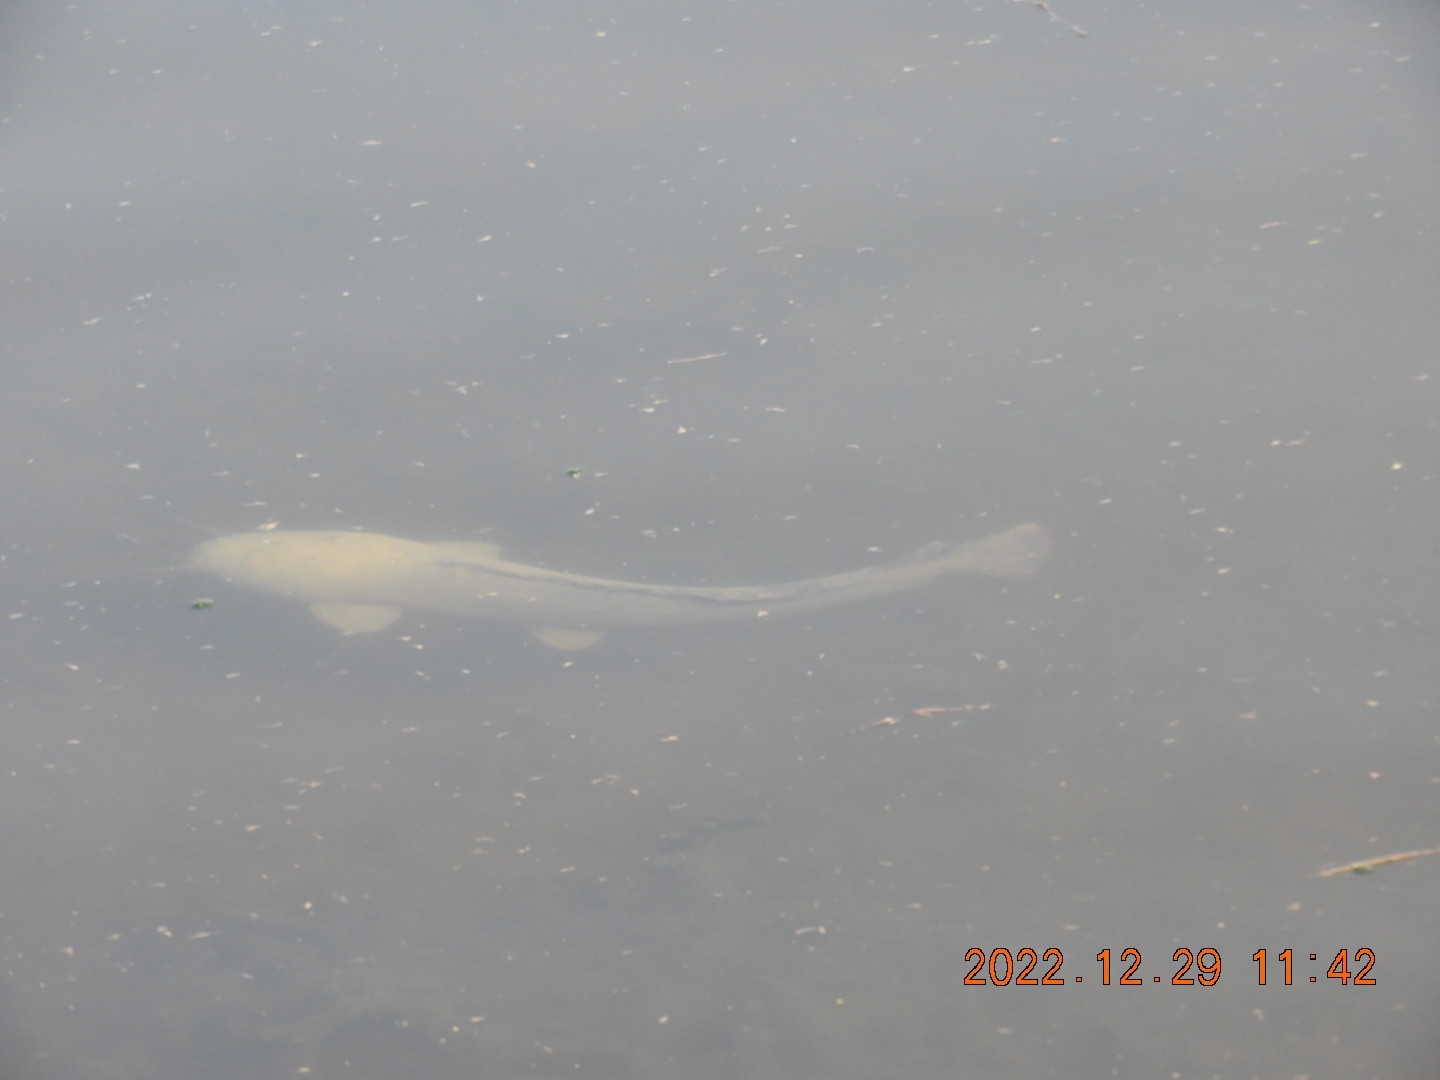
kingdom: Animalia
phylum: Chordata
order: Siluriformes
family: Clariidae
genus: Clarias
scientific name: Clarias gariepinus
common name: African catfish
